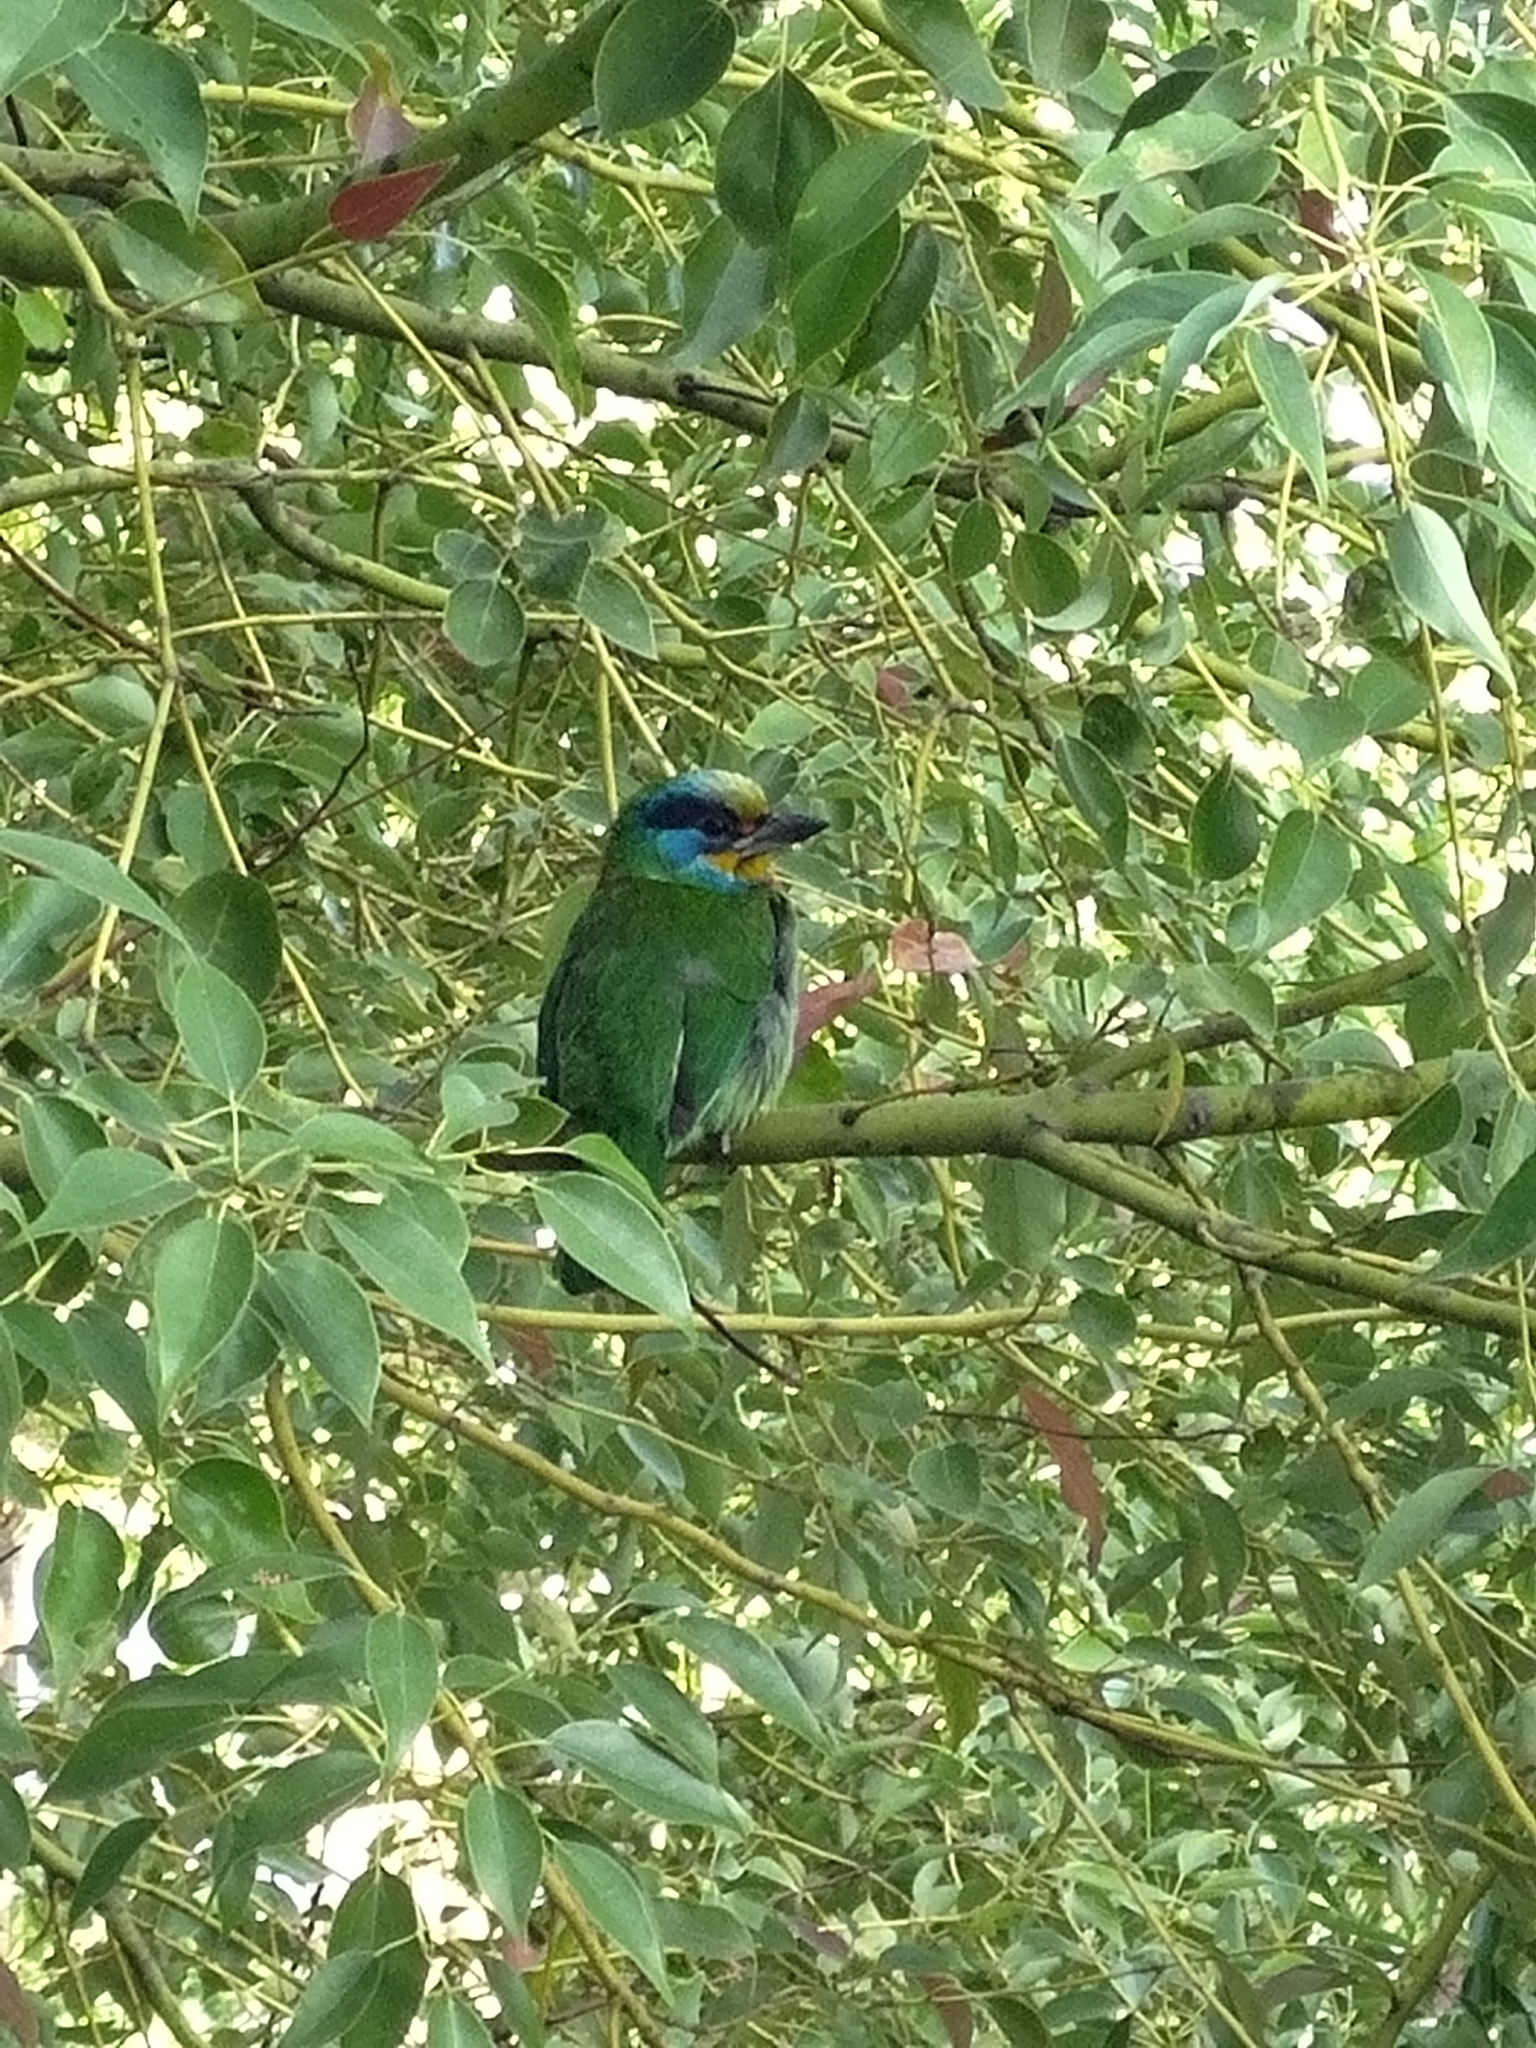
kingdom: Animalia
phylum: Chordata
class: Aves
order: Piciformes
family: Megalaimidae
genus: Psilopogon
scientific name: Psilopogon nuchalis
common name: Taiwan barbet
